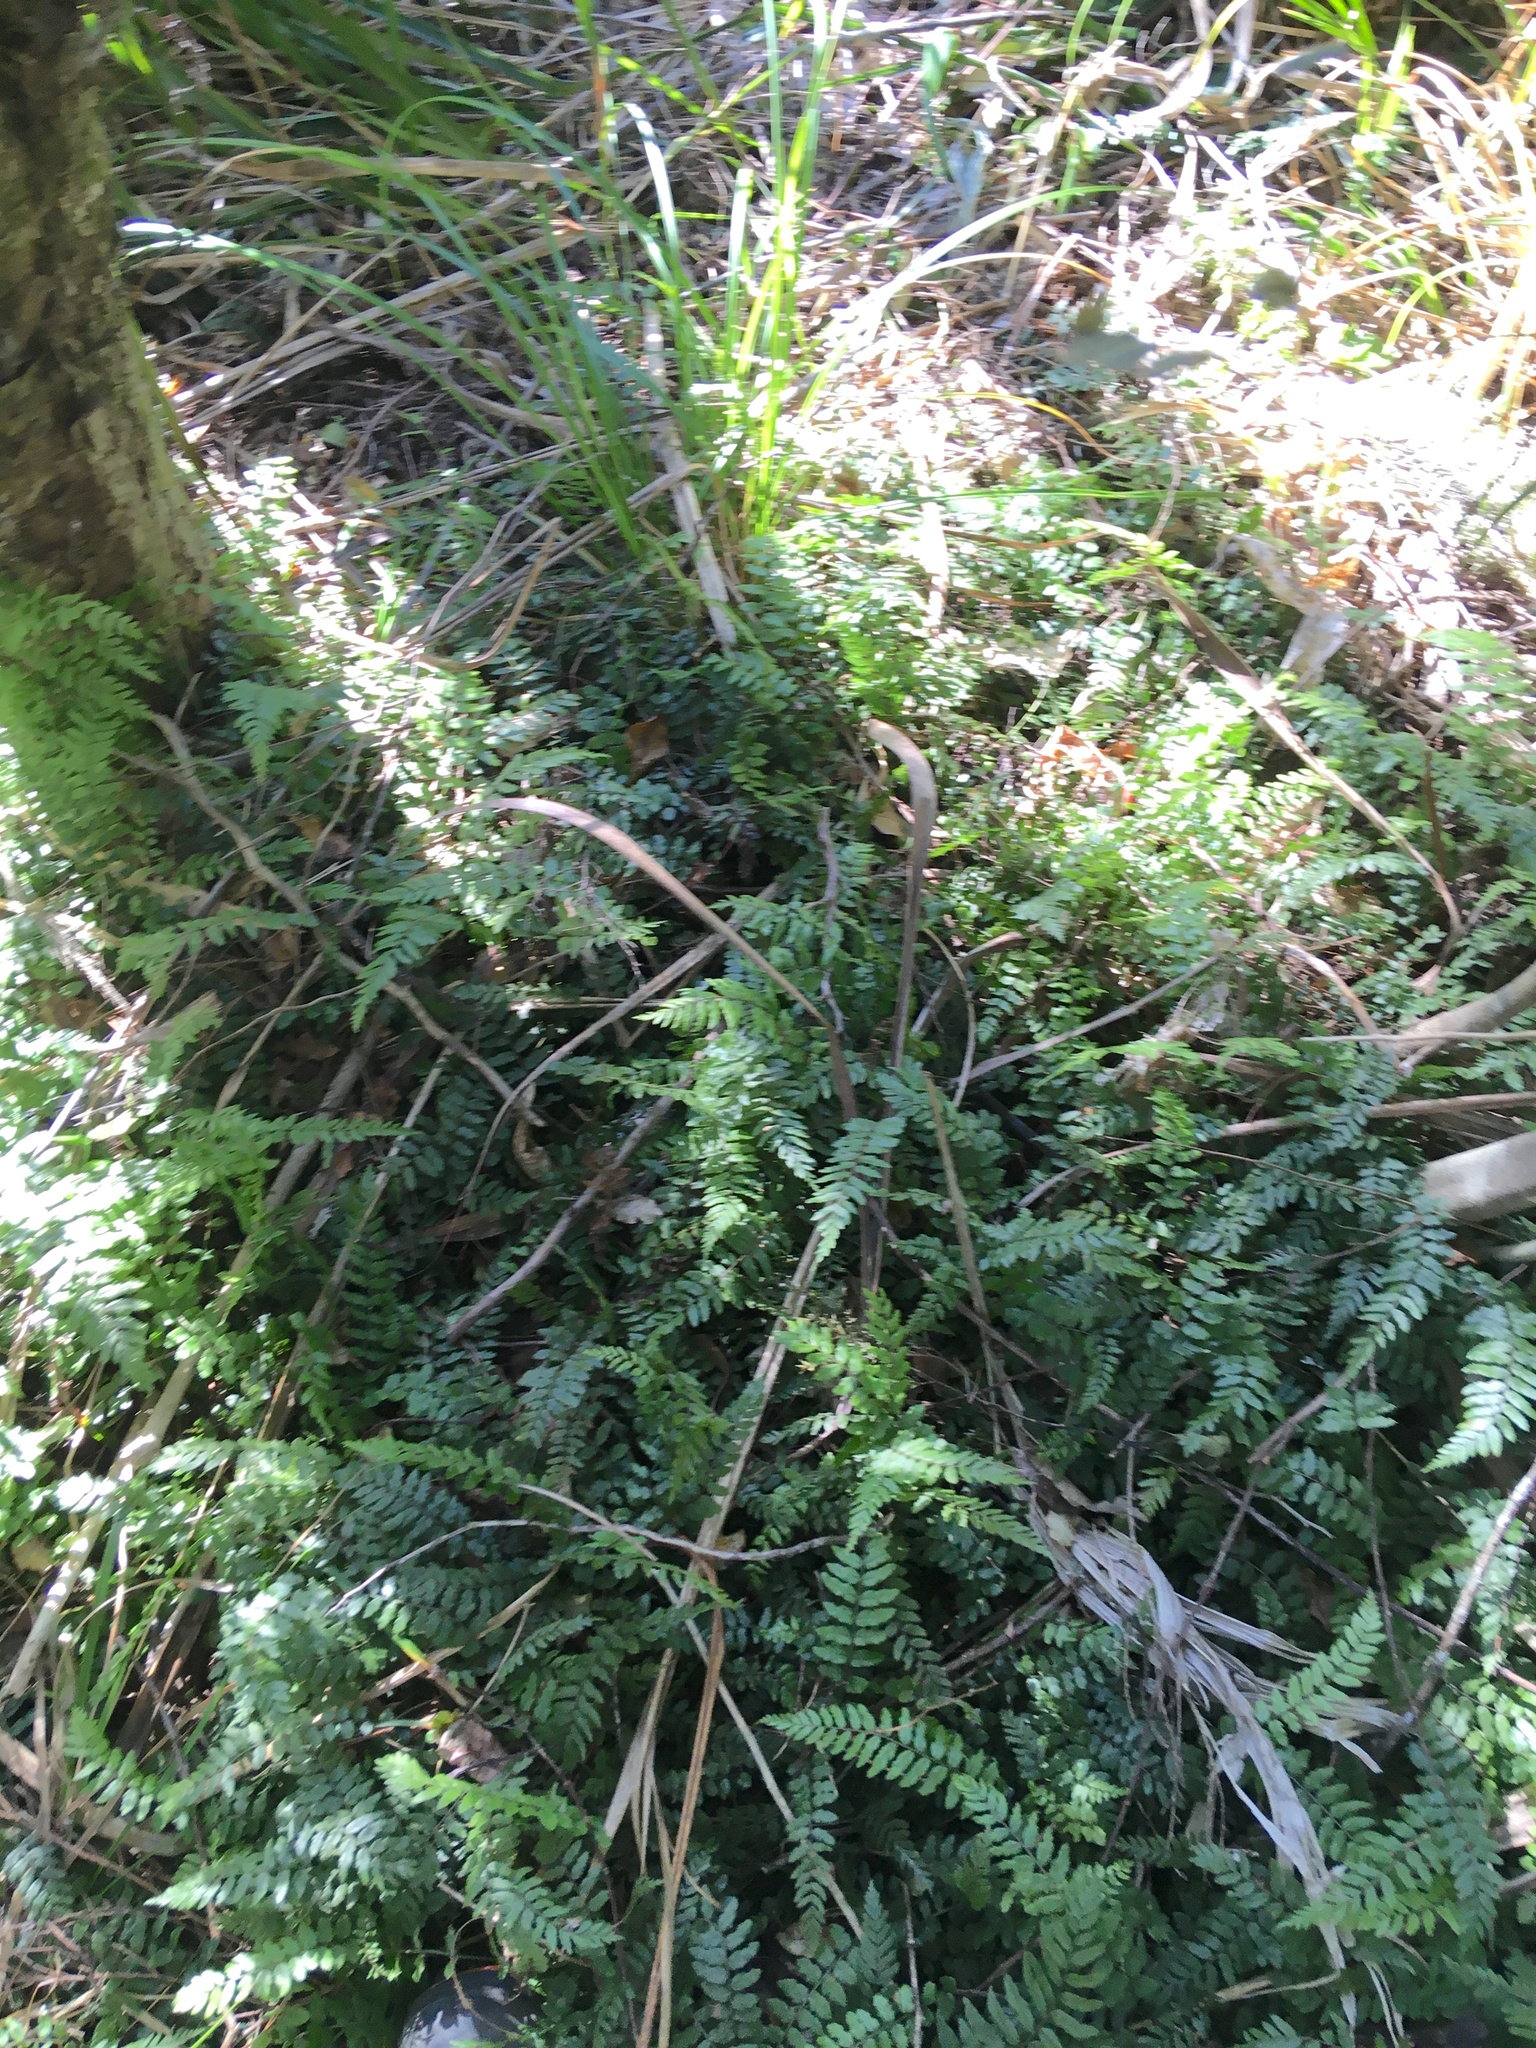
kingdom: Plantae
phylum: Tracheophyta
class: Polypodiopsida
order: Polypodiales
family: Blechnaceae
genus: Icarus
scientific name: Icarus filiformis
